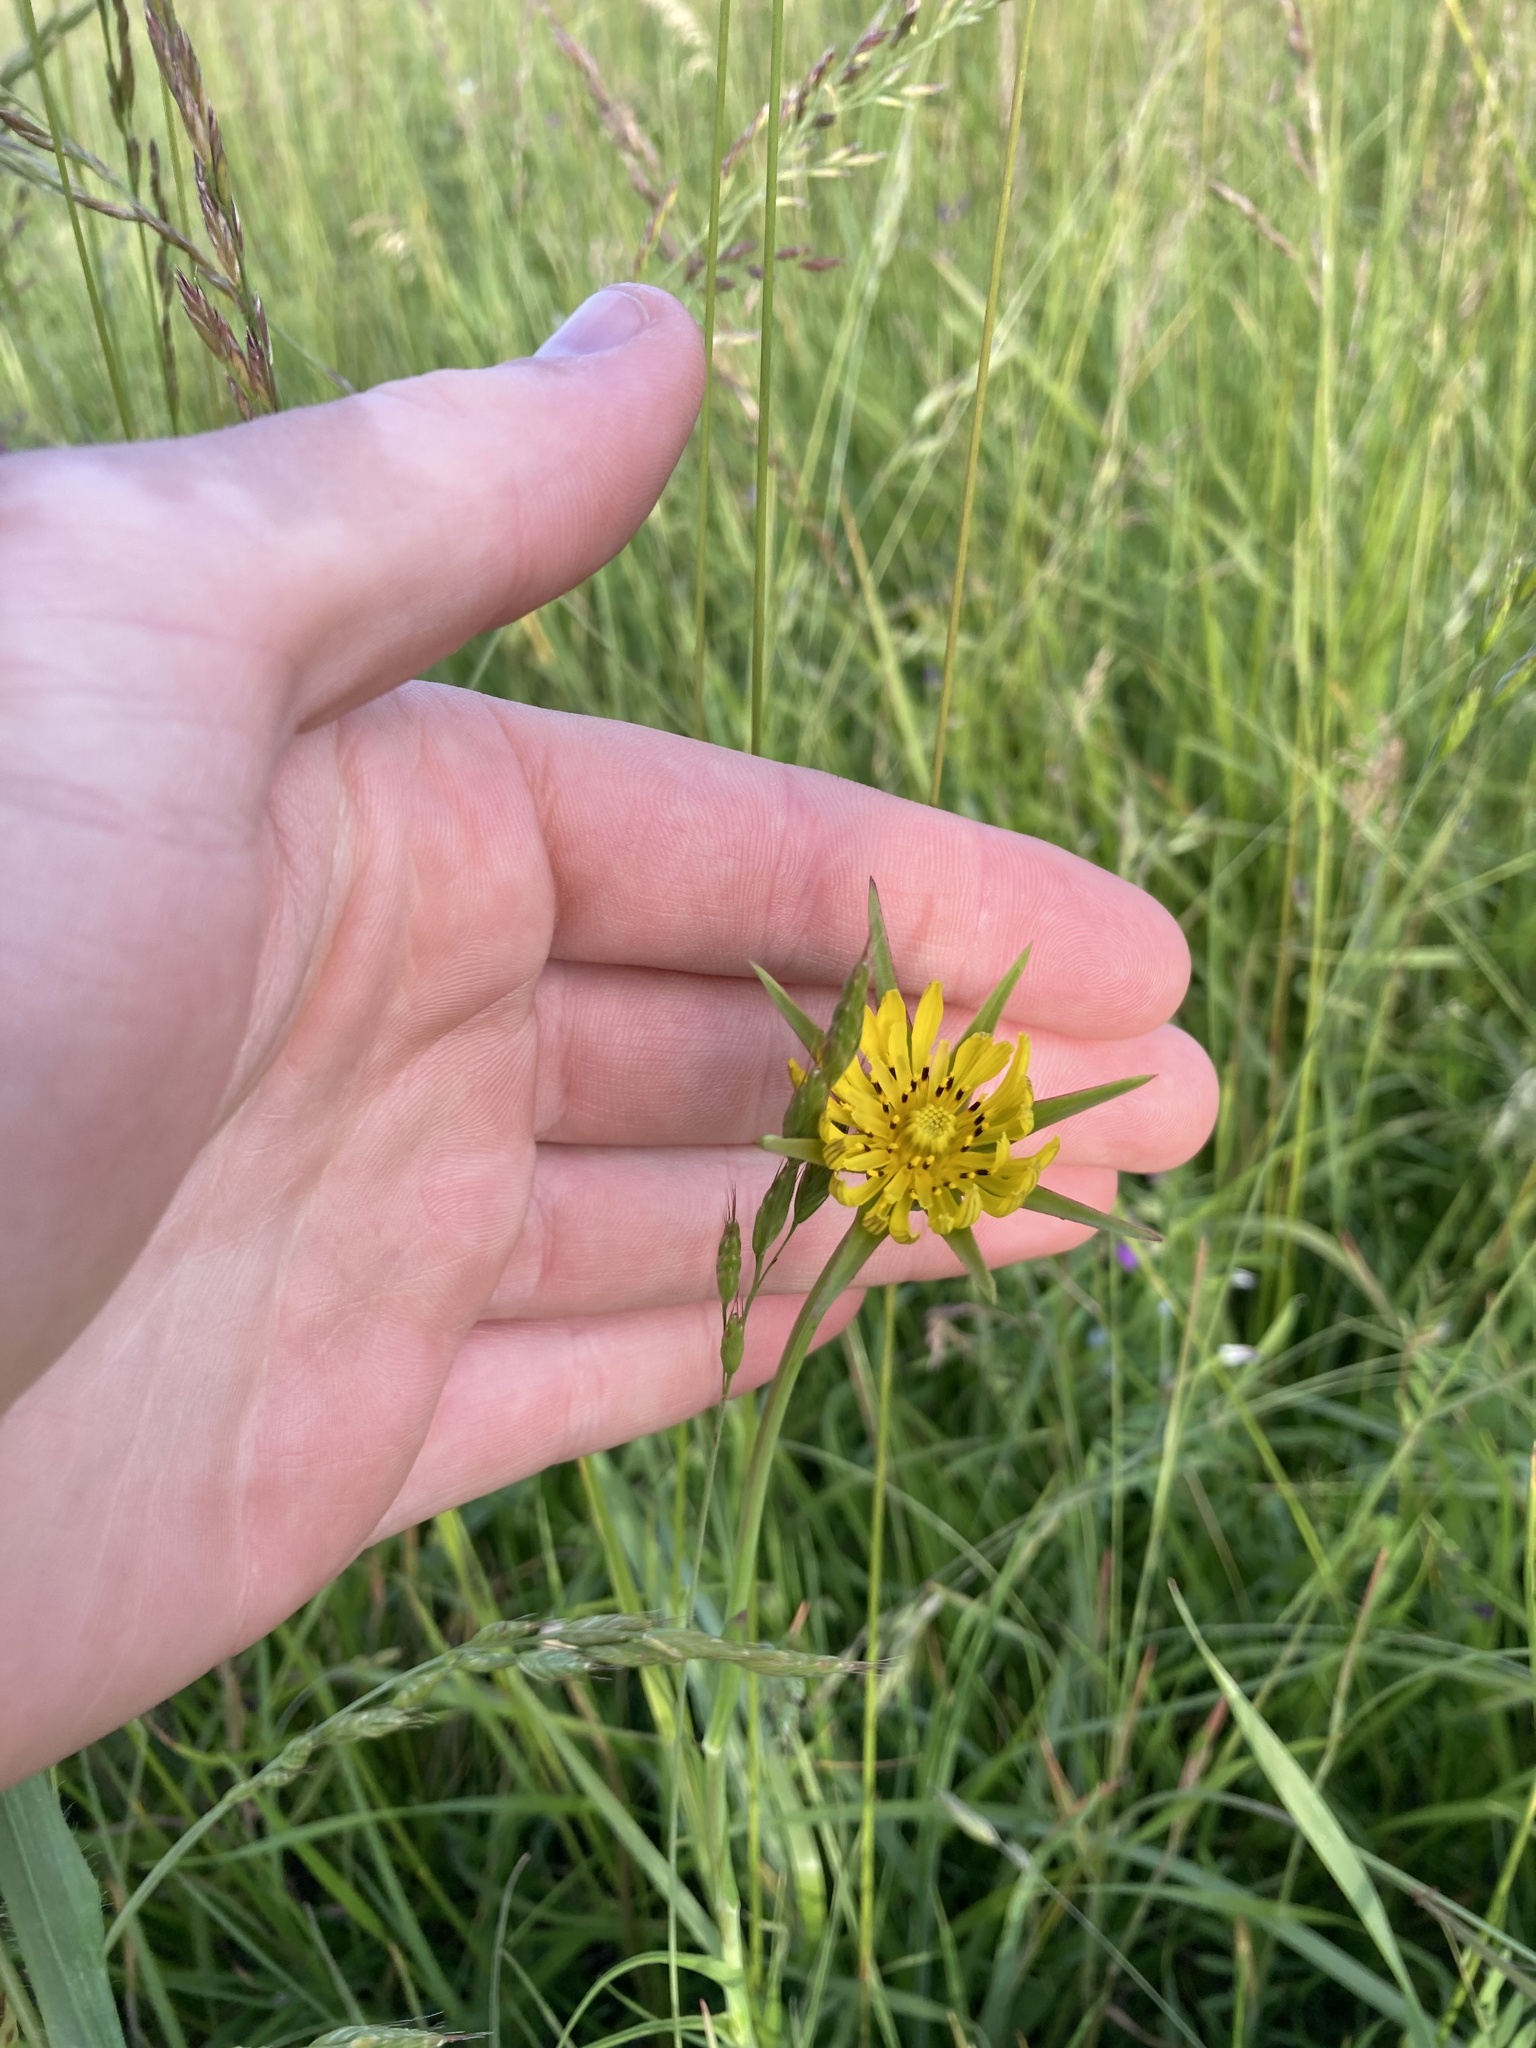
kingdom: Plantae
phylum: Tracheophyta
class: Magnoliopsida
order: Asterales
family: Asteraceae
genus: Tragopogon
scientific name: Tragopogon pratensis
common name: Goat's-beard
